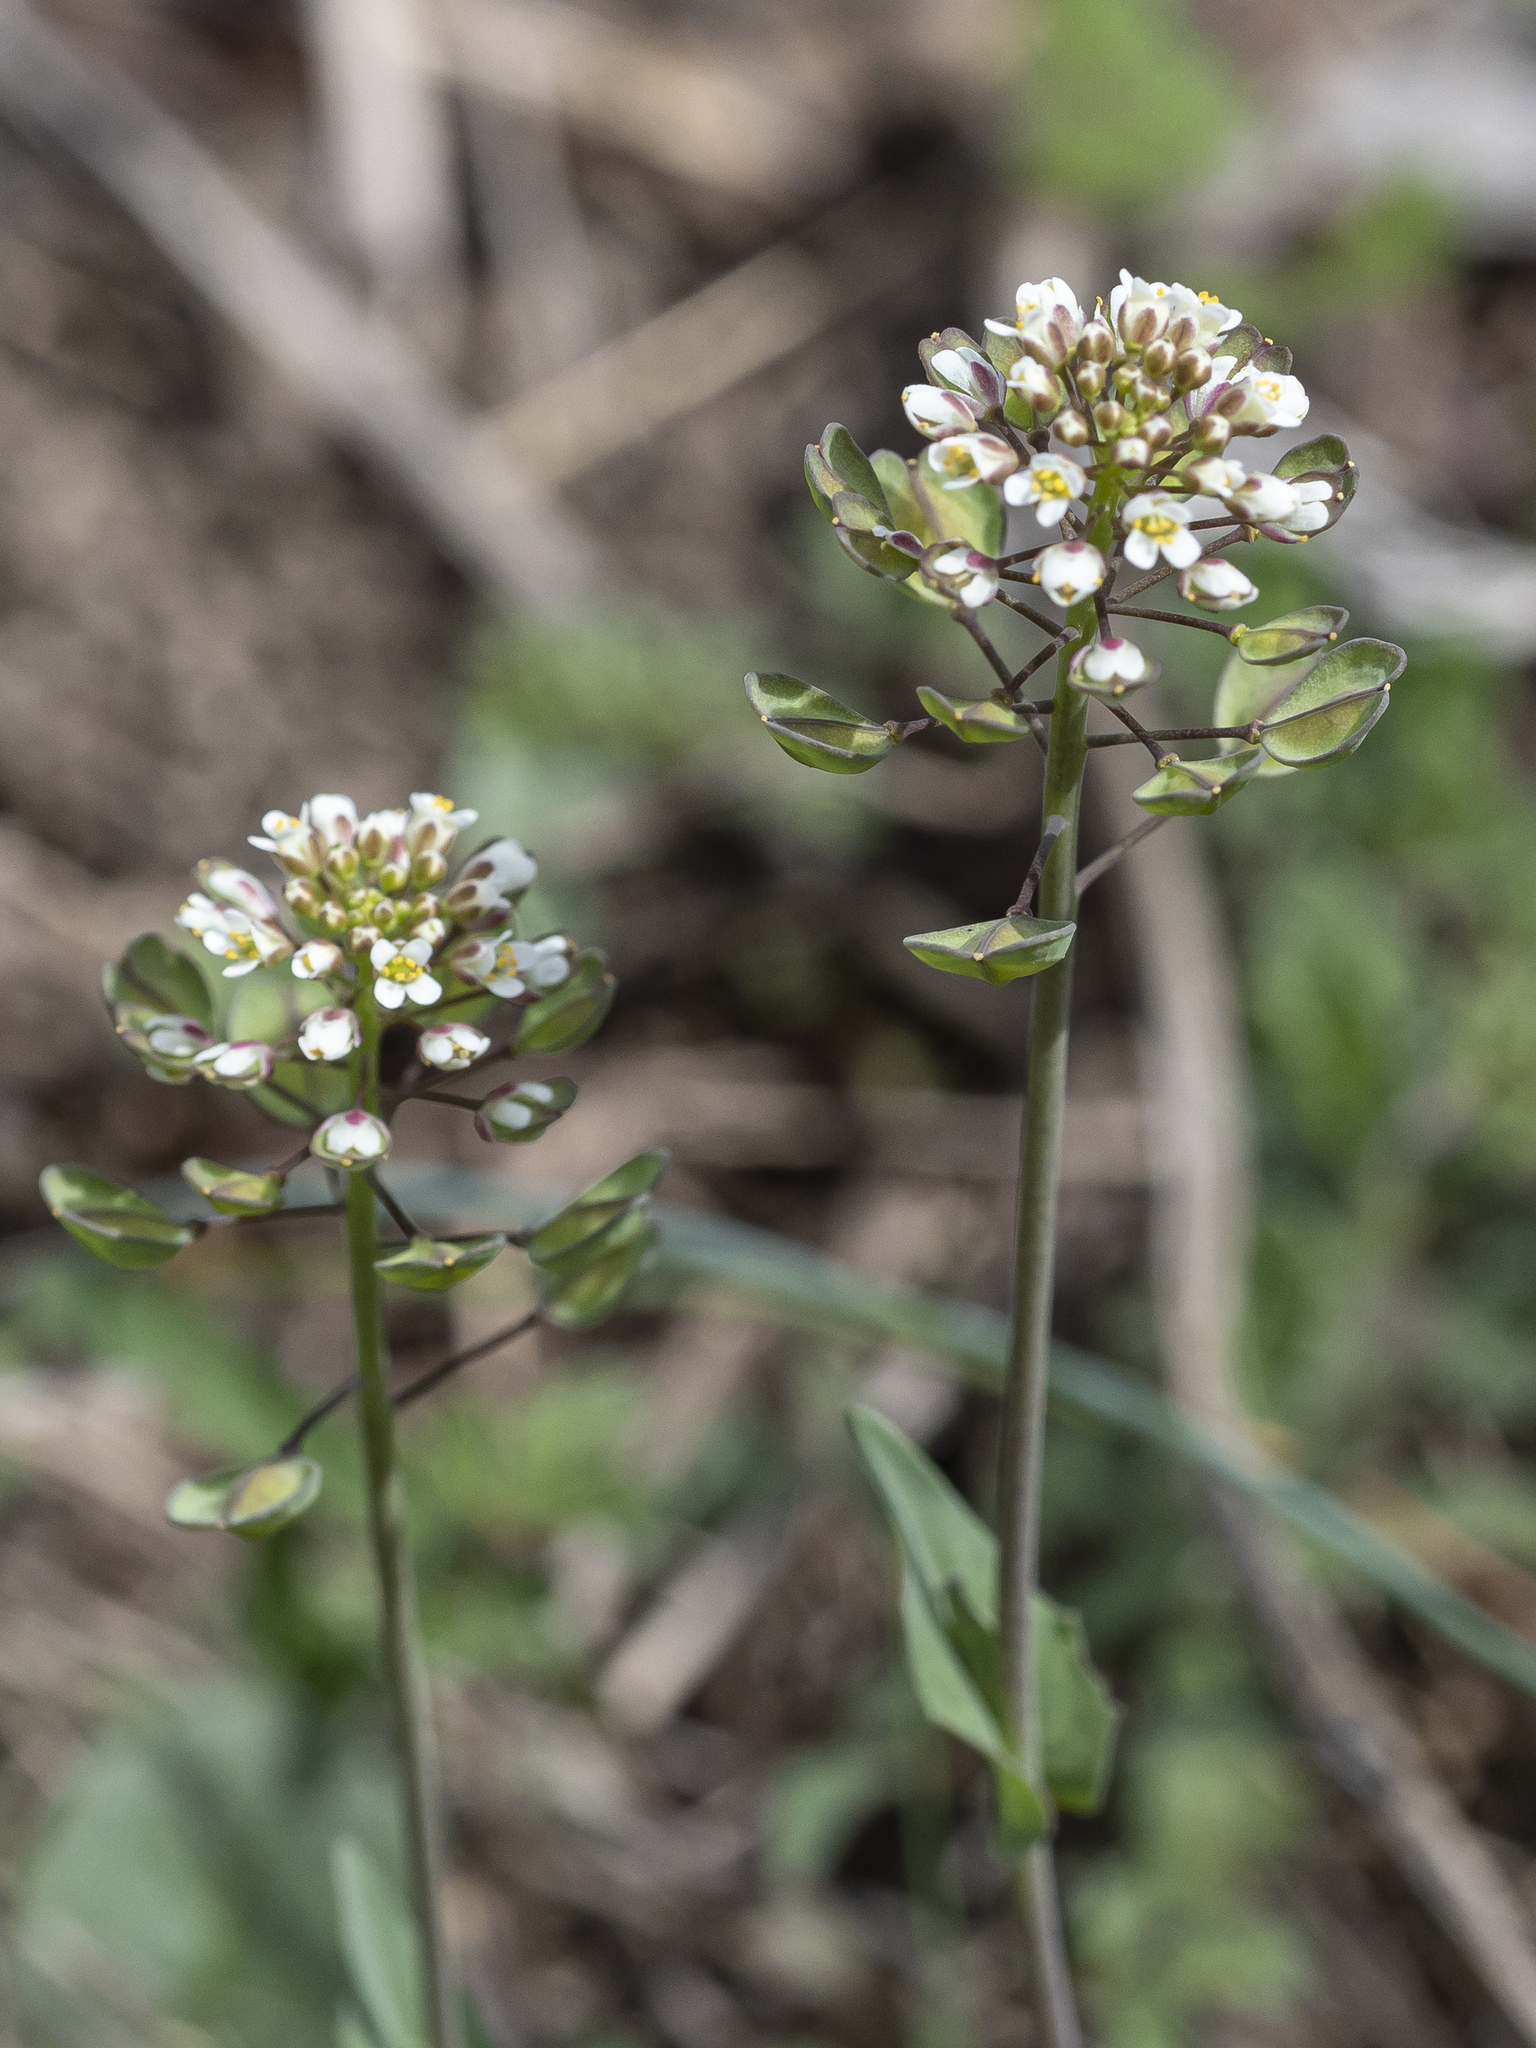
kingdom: Plantae
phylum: Tracheophyta
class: Magnoliopsida
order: Brassicales
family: Brassicaceae
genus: Noccaea
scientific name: Noccaea perfoliata
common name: Perfoliate pennycress
